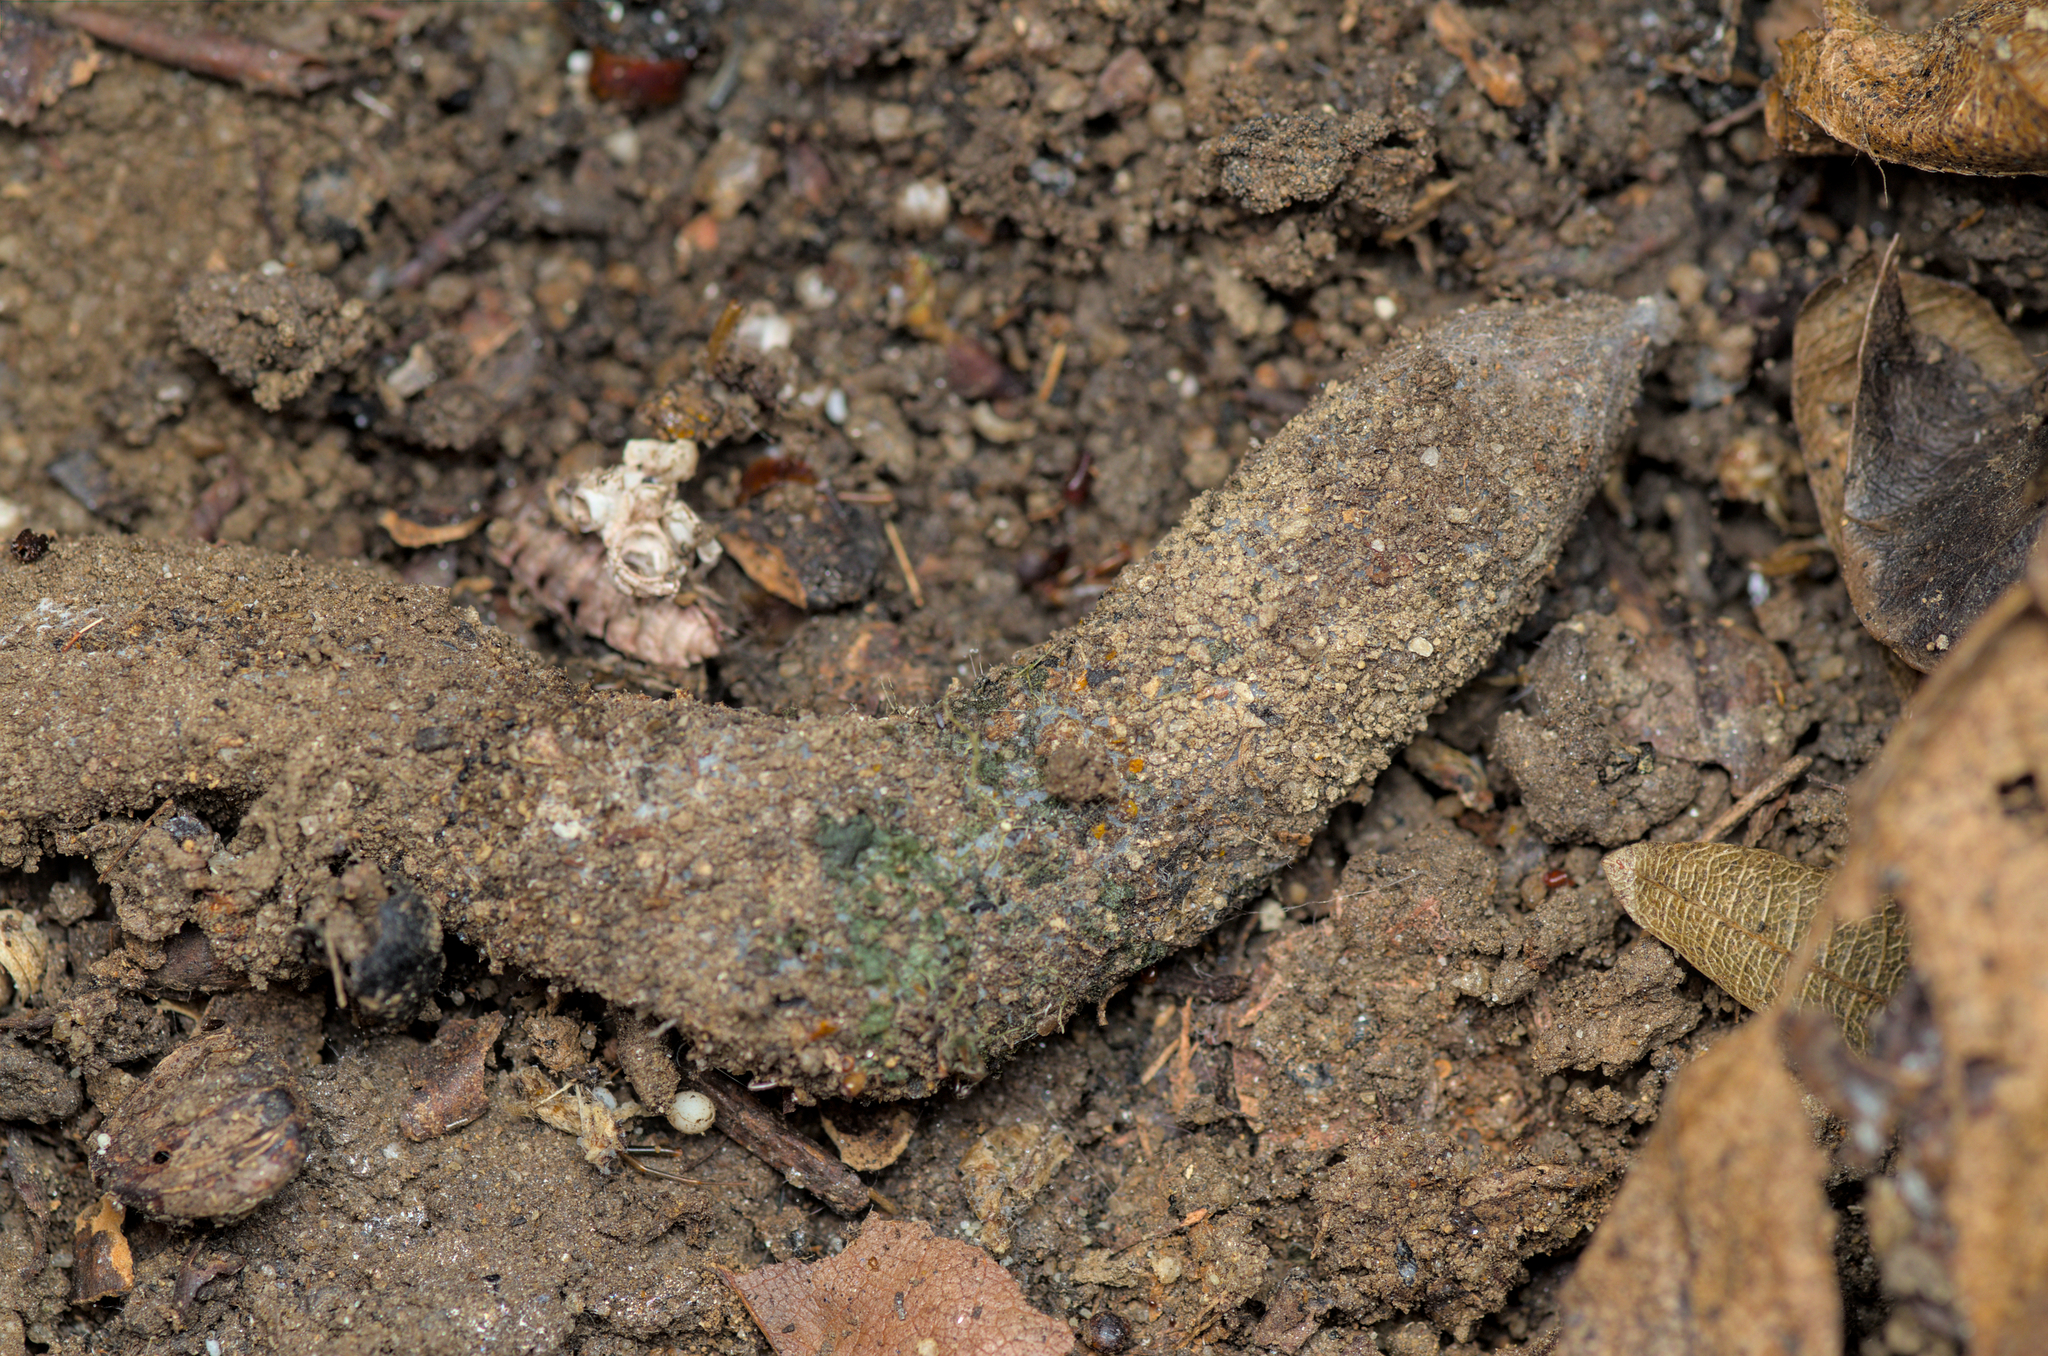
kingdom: Animalia
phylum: Arthropoda
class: Arachnida
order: Araneae
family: Atypidae
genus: Atypus
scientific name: Atypus affinis
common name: Purse web spider
